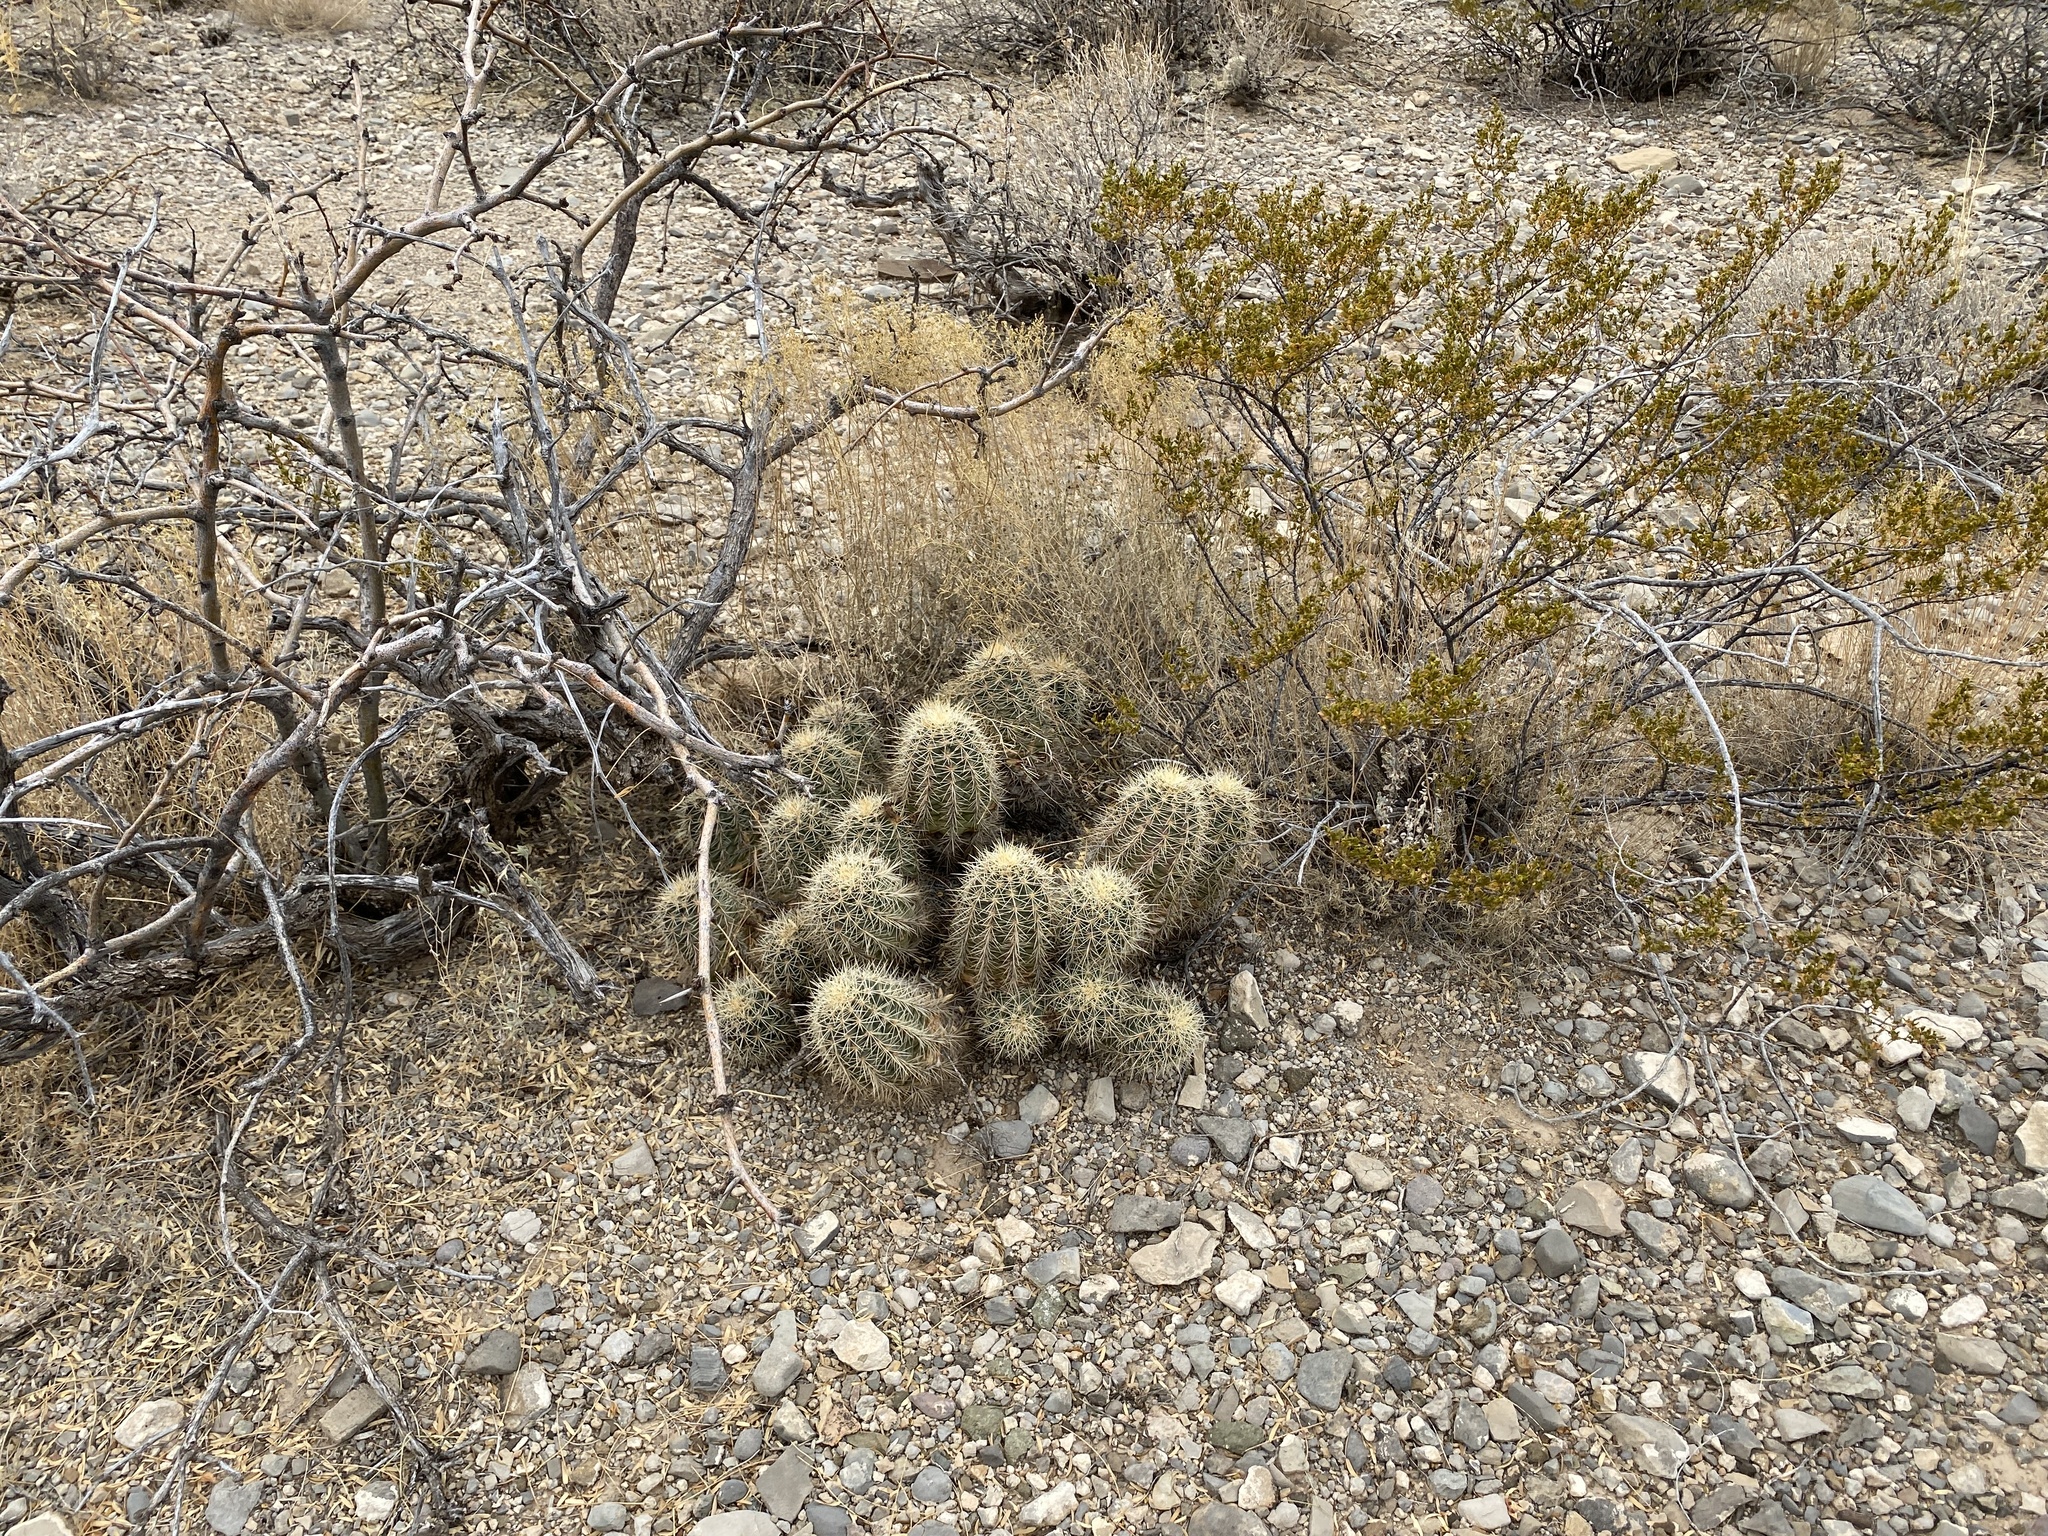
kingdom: Plantae
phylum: Tracheophyta
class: Magnoliopsida
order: Caryophyllales
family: Cactaceae
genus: Echinocereus
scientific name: Echinocereus coccineus
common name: Scarlet hedgehog cactus
